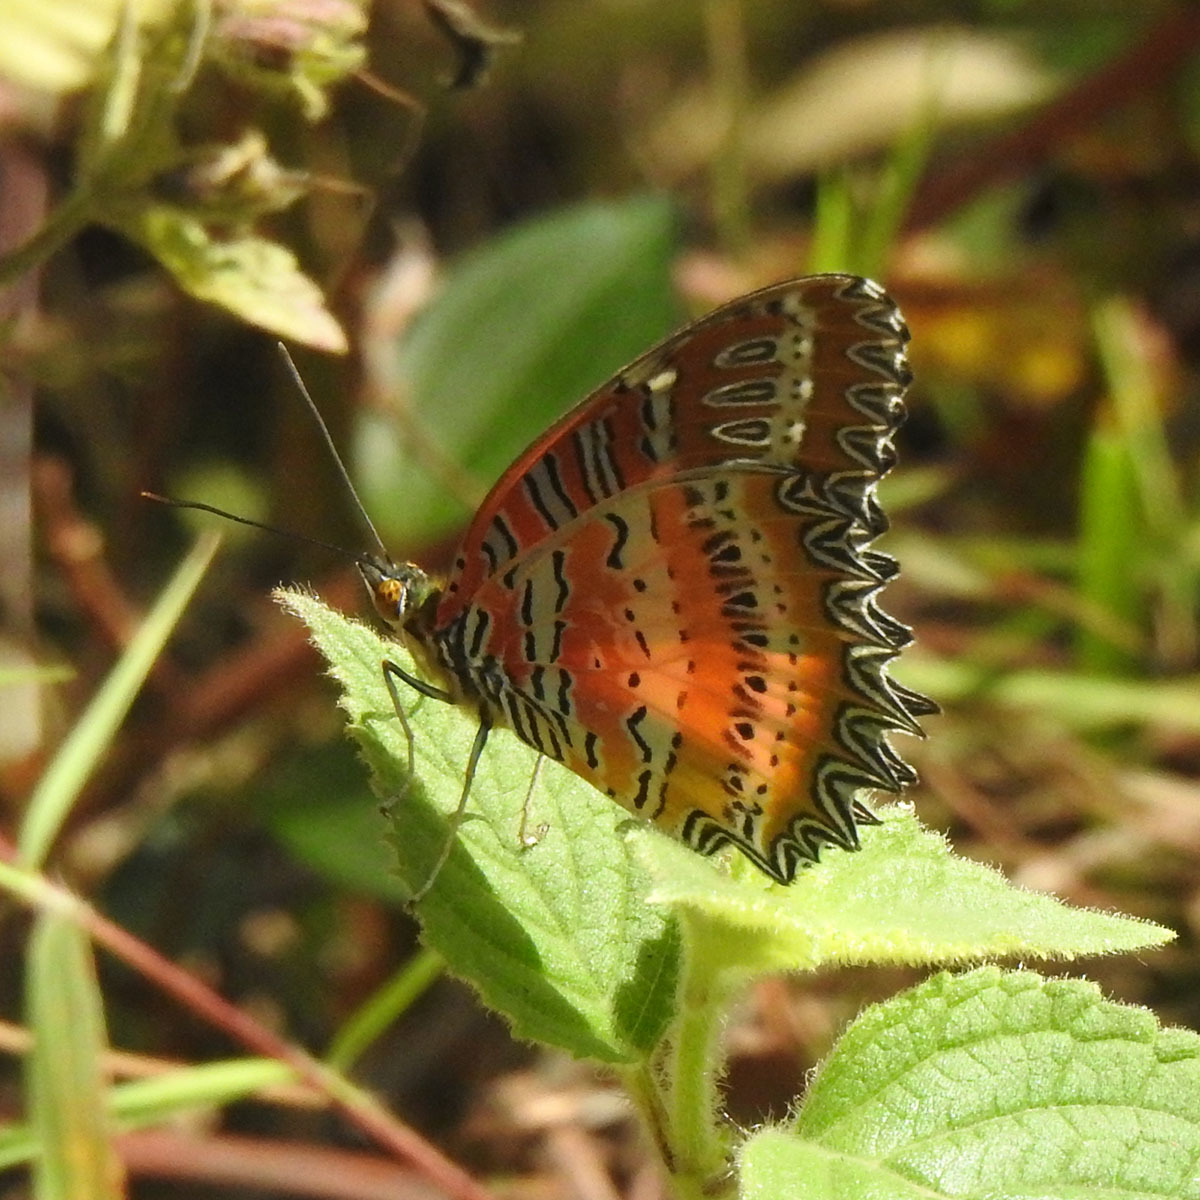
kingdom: Animalia
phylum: Arthropoda
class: Insecta
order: Lepidoptera
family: Nymphalidae
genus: Cethosia
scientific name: Cethosia biblis
